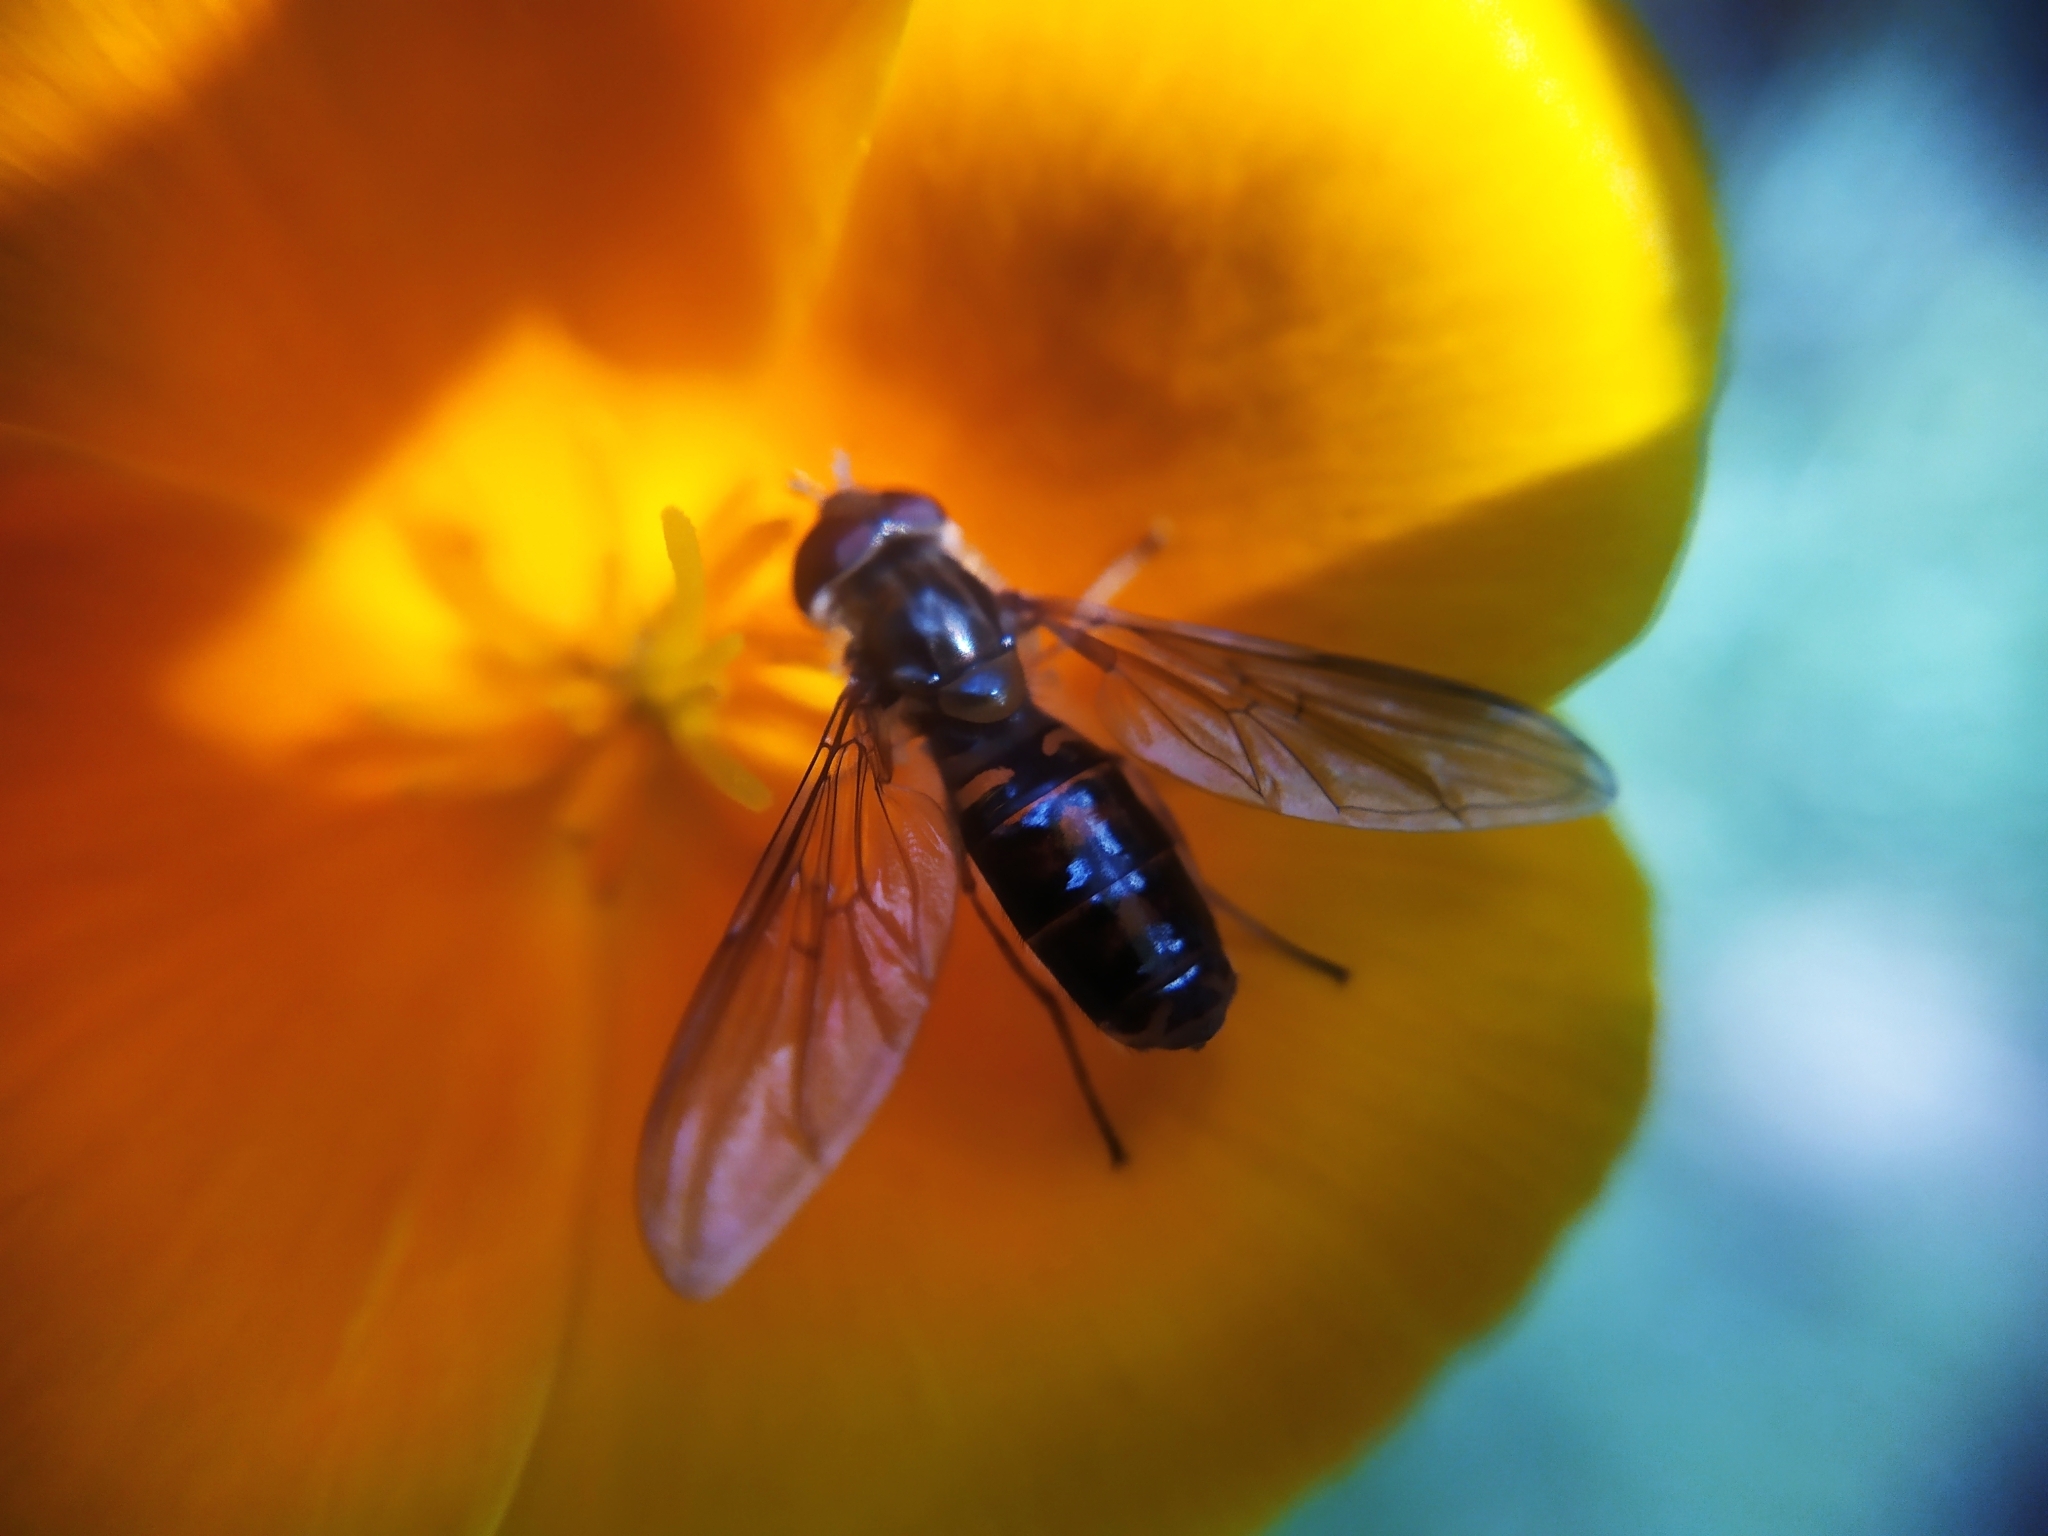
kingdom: Animalia
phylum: Arthropoda
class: Insecta
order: Diptera
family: Syrphidae
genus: Episyrphus
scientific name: Episyrphus balteatus
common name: Marmalade hoverfly
